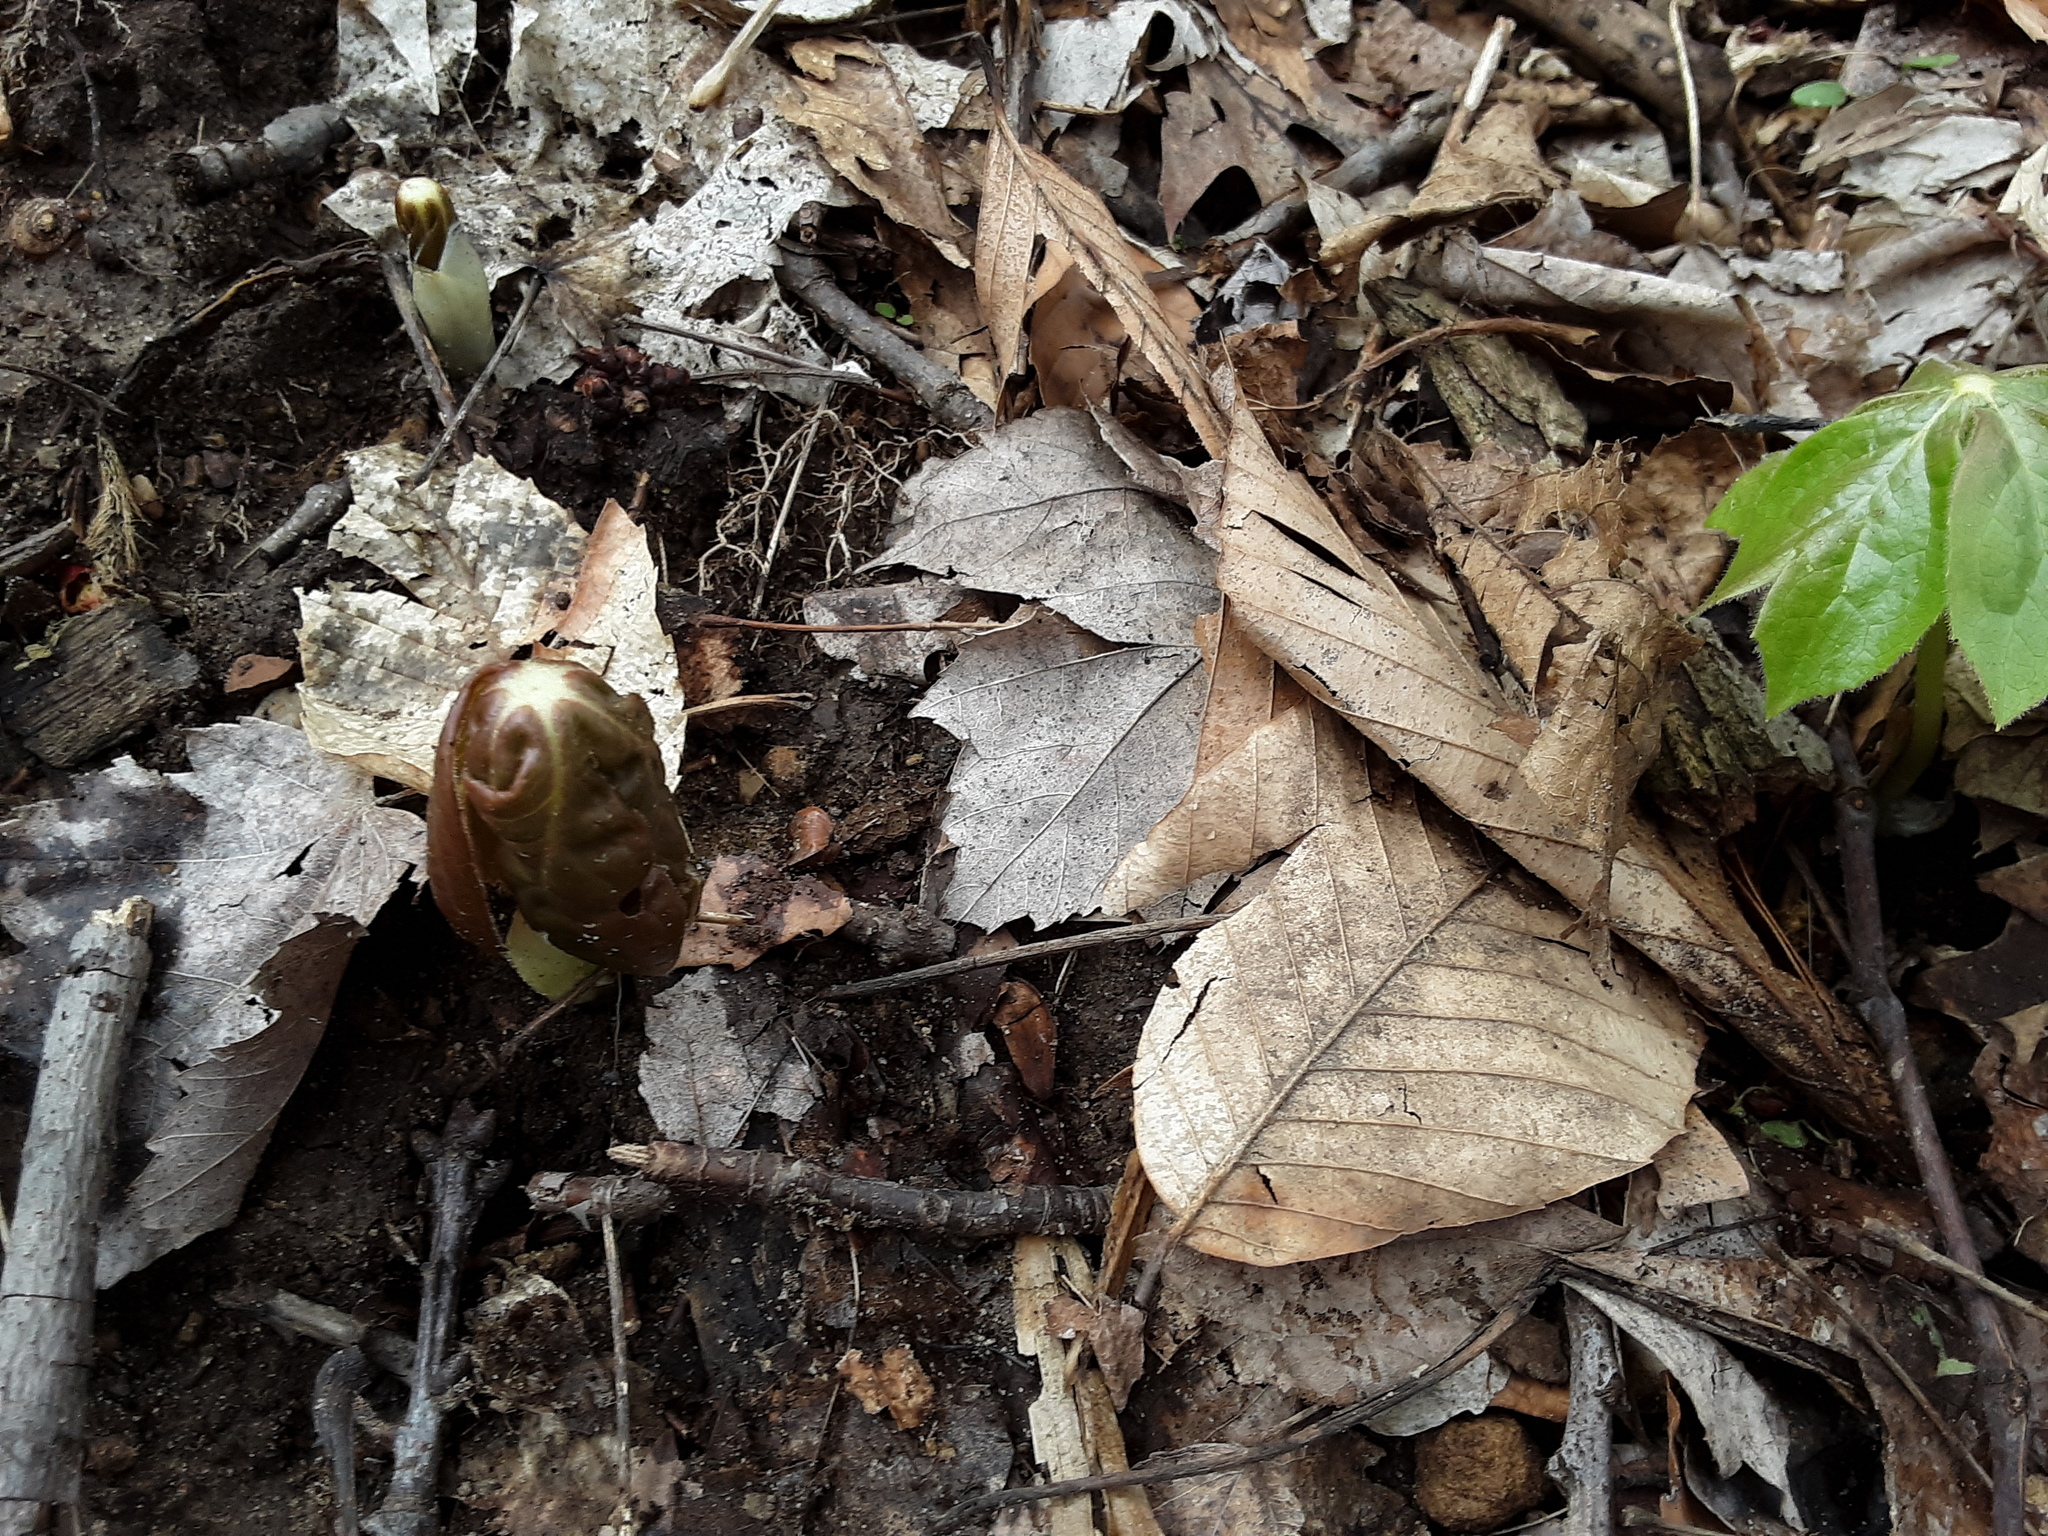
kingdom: Plantae
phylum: Tracheophyta
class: Magnoliopsida
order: Ranunculales
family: Berberidaceae
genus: Podophyllum
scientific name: Podophyllum peltatum
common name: Wild mandrake
